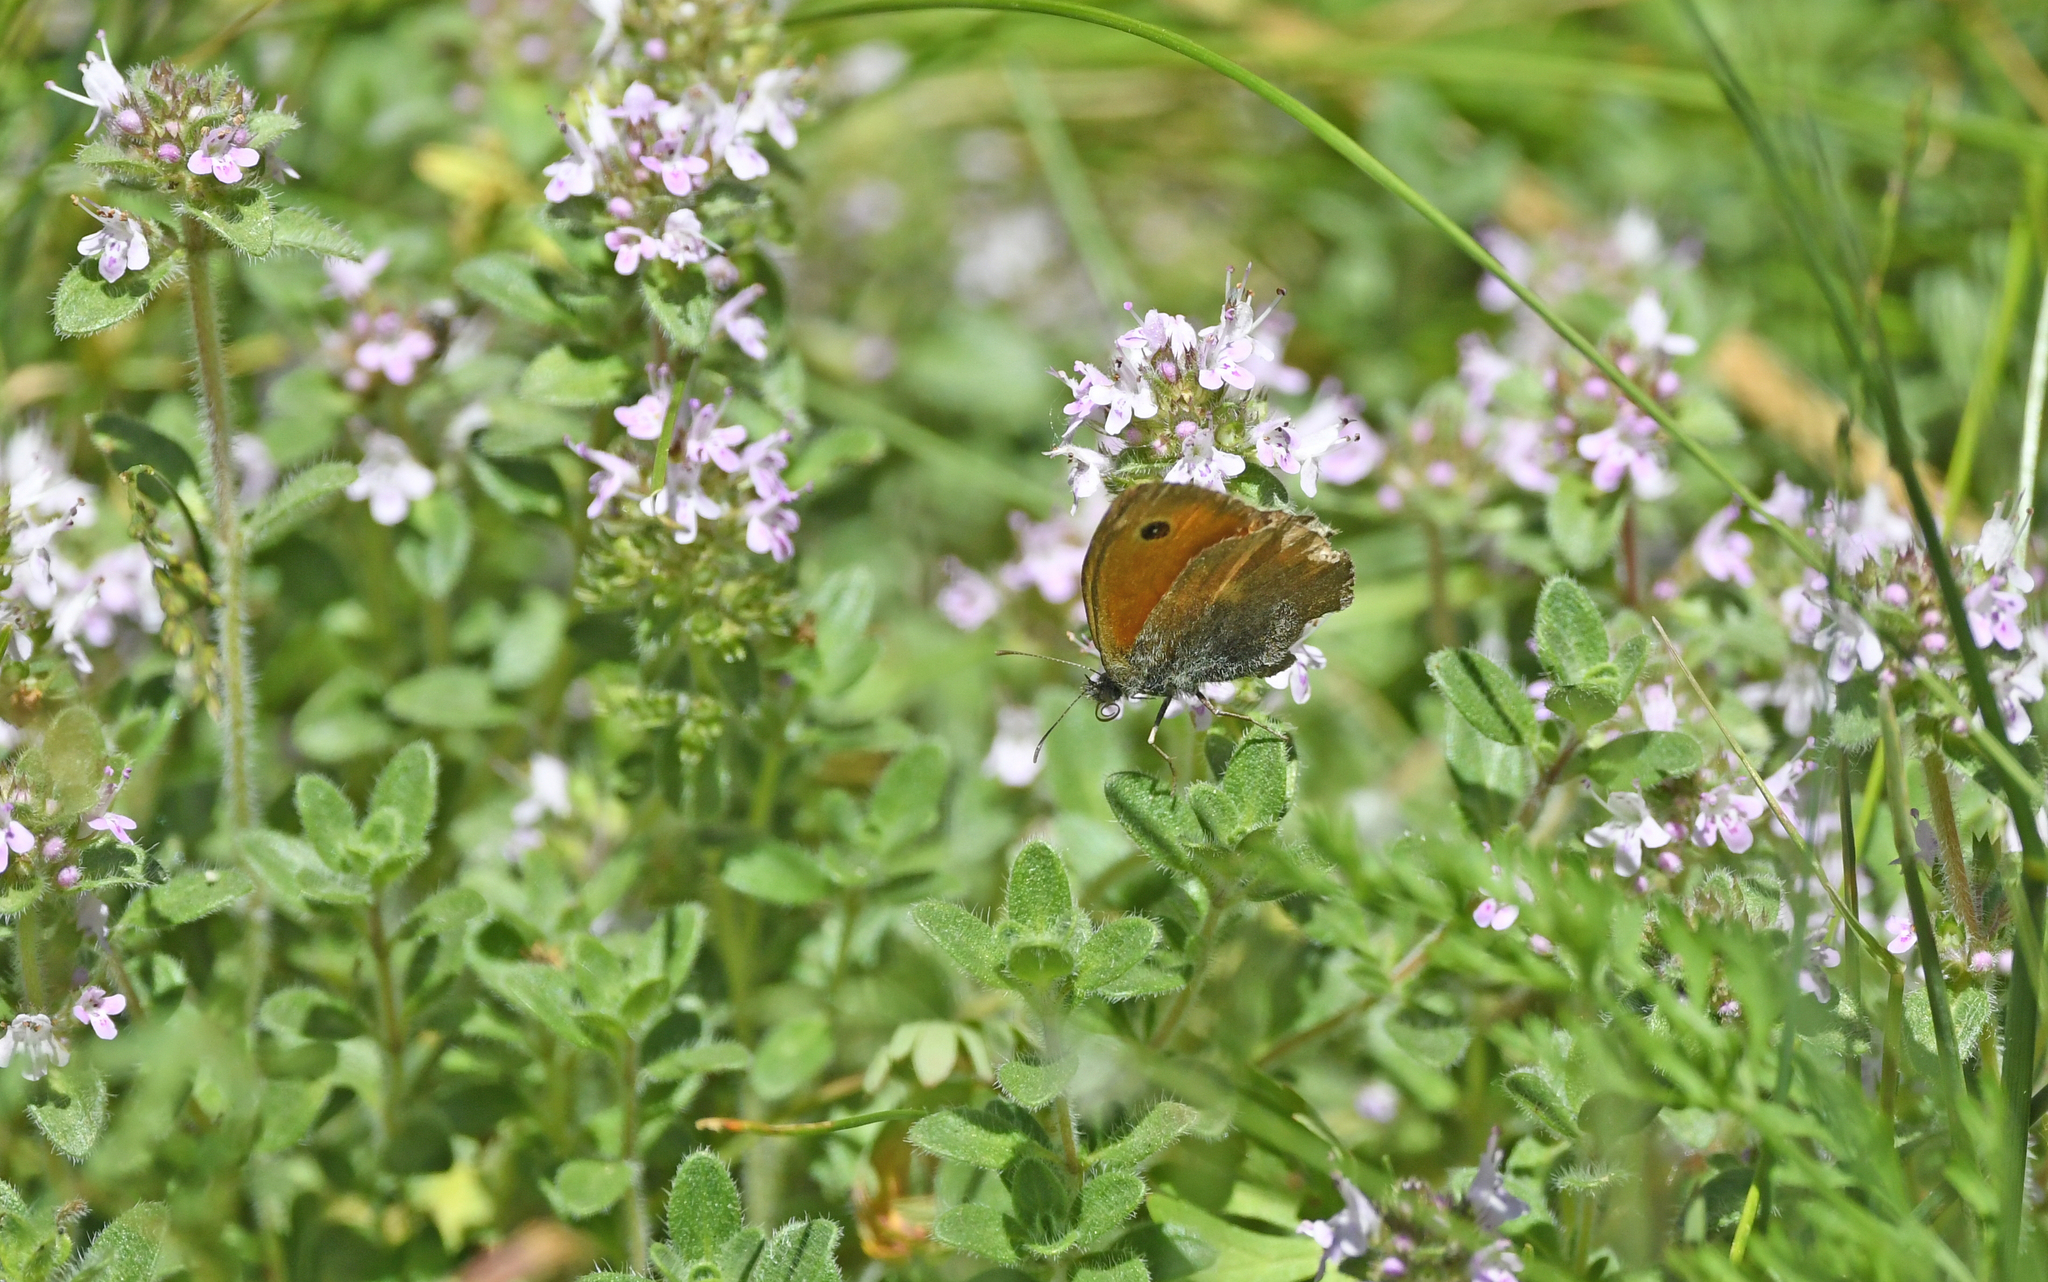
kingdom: Animalia
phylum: Arthropoda
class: Insecta
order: Lepidoptera
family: Nymphalidae
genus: Coenonympha
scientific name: Coenonympha pamphilus
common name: Small heath
